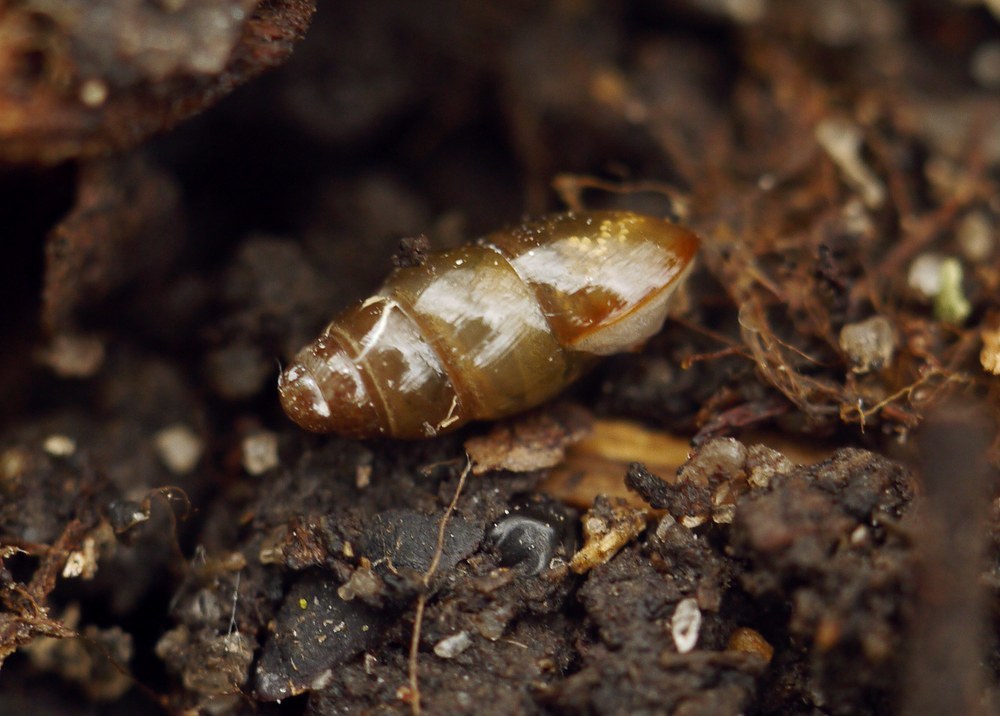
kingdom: Animalia
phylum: Mollusca
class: Gastropoda
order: Stylommatophora
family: Cochlicopidae
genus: Cochlicopa
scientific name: Cochlicopa
